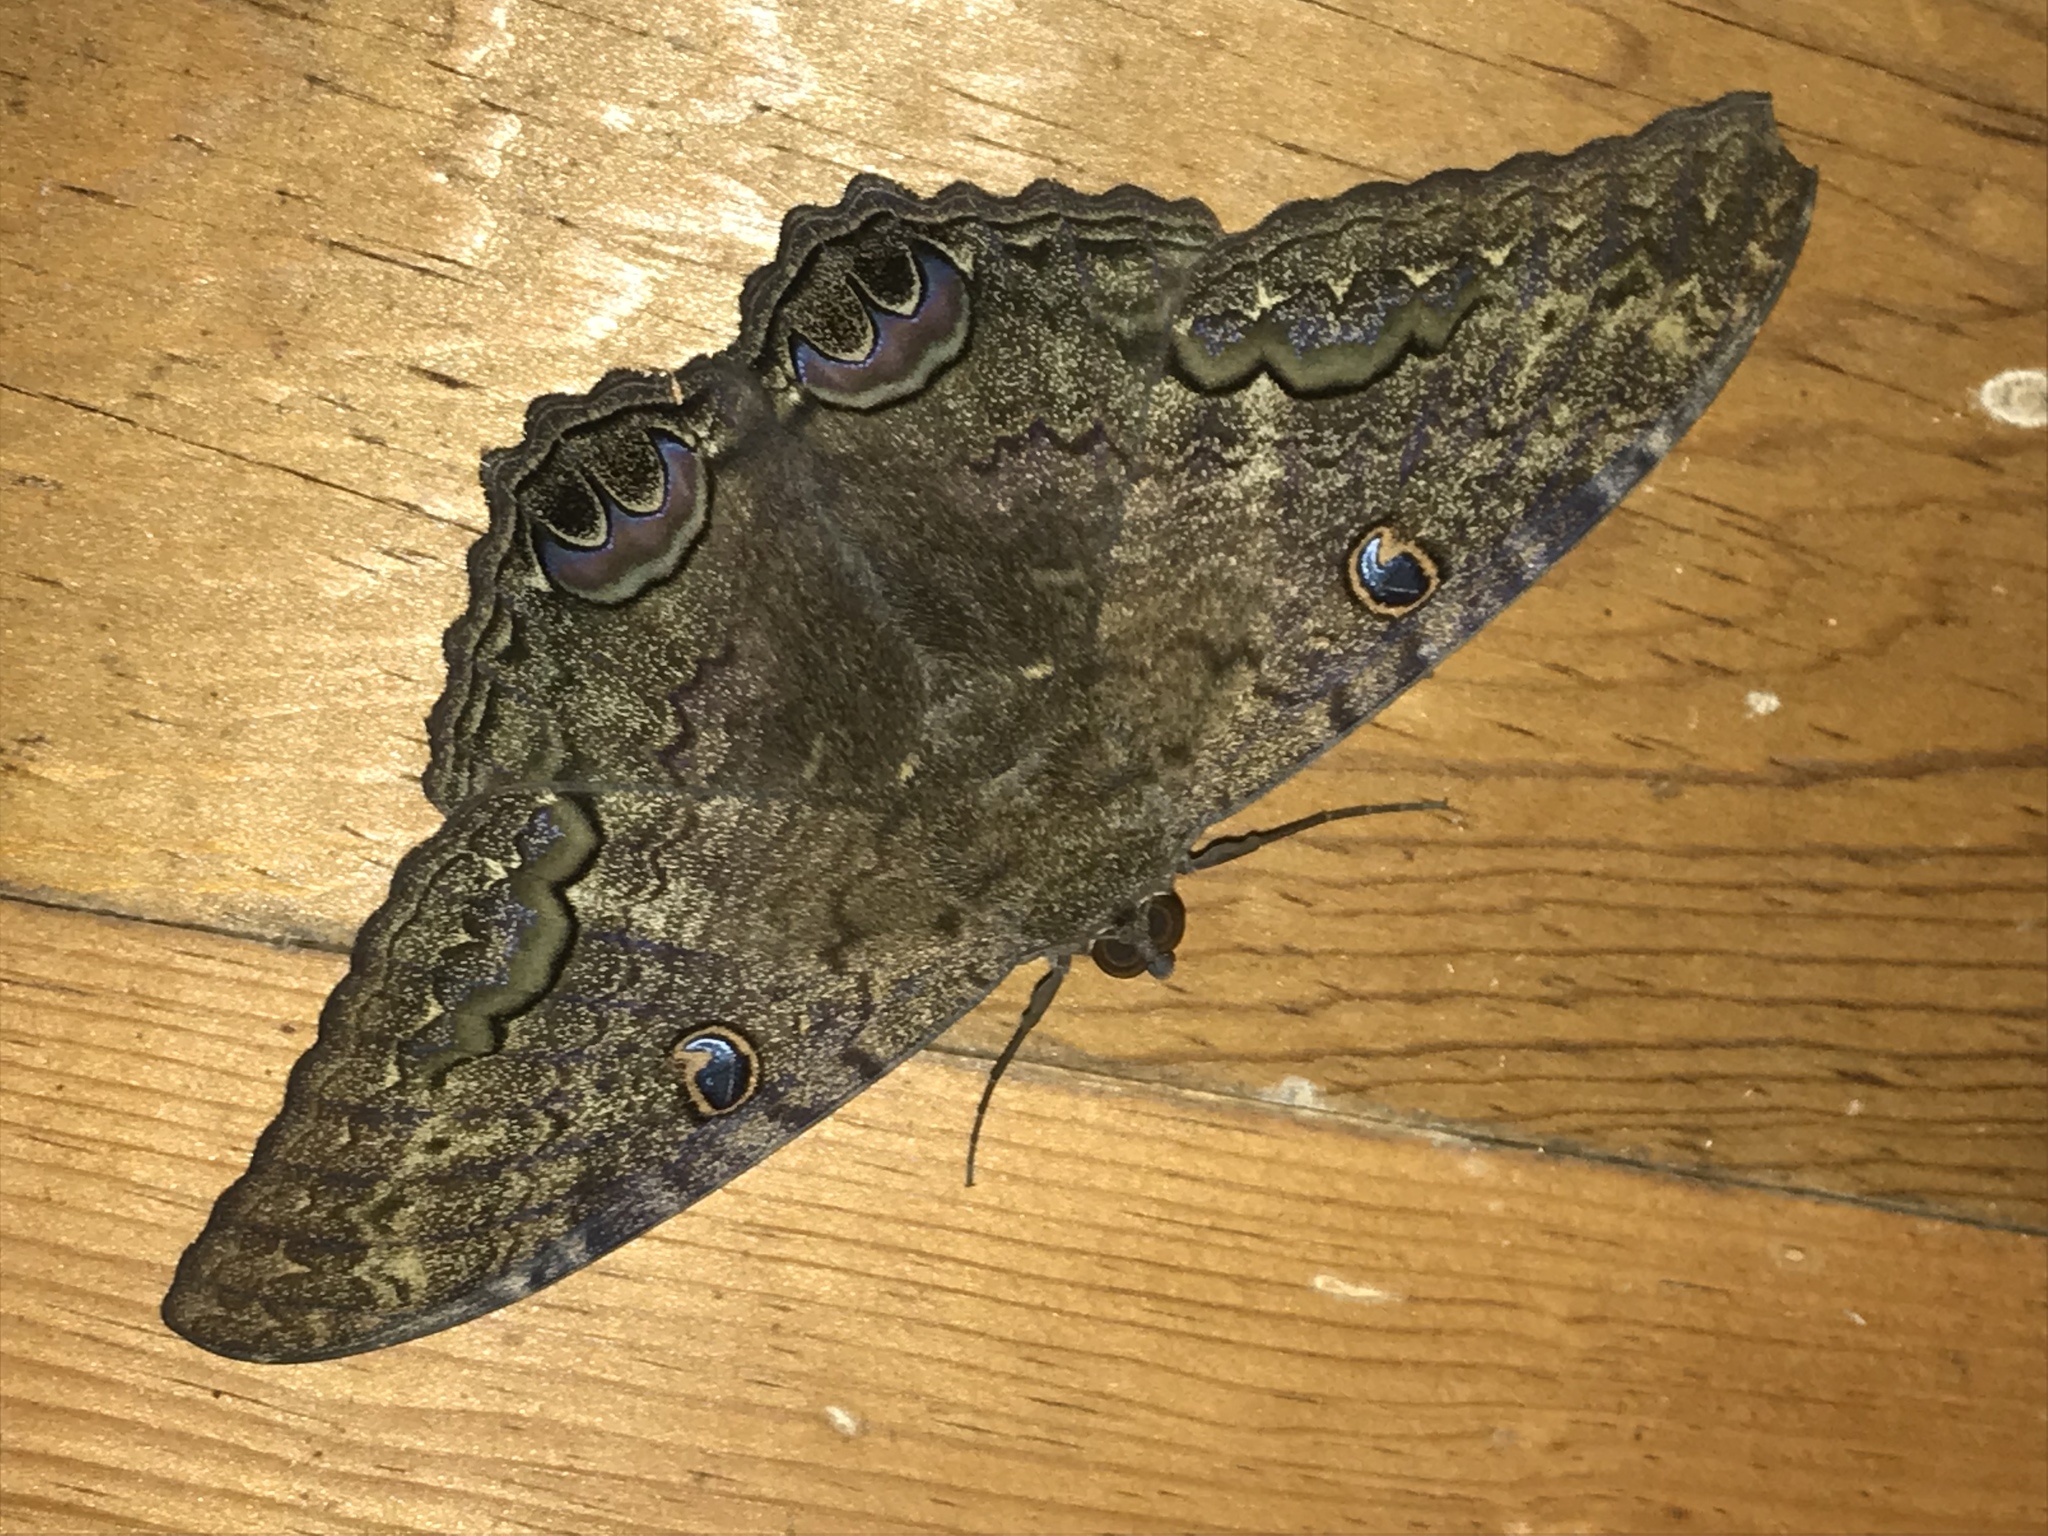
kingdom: Animalia
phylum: Arthropoda
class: Insecta
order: Lepidoptera
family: Erebidae
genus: Ascalapha
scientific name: Ascalapha odorata
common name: Black witch
